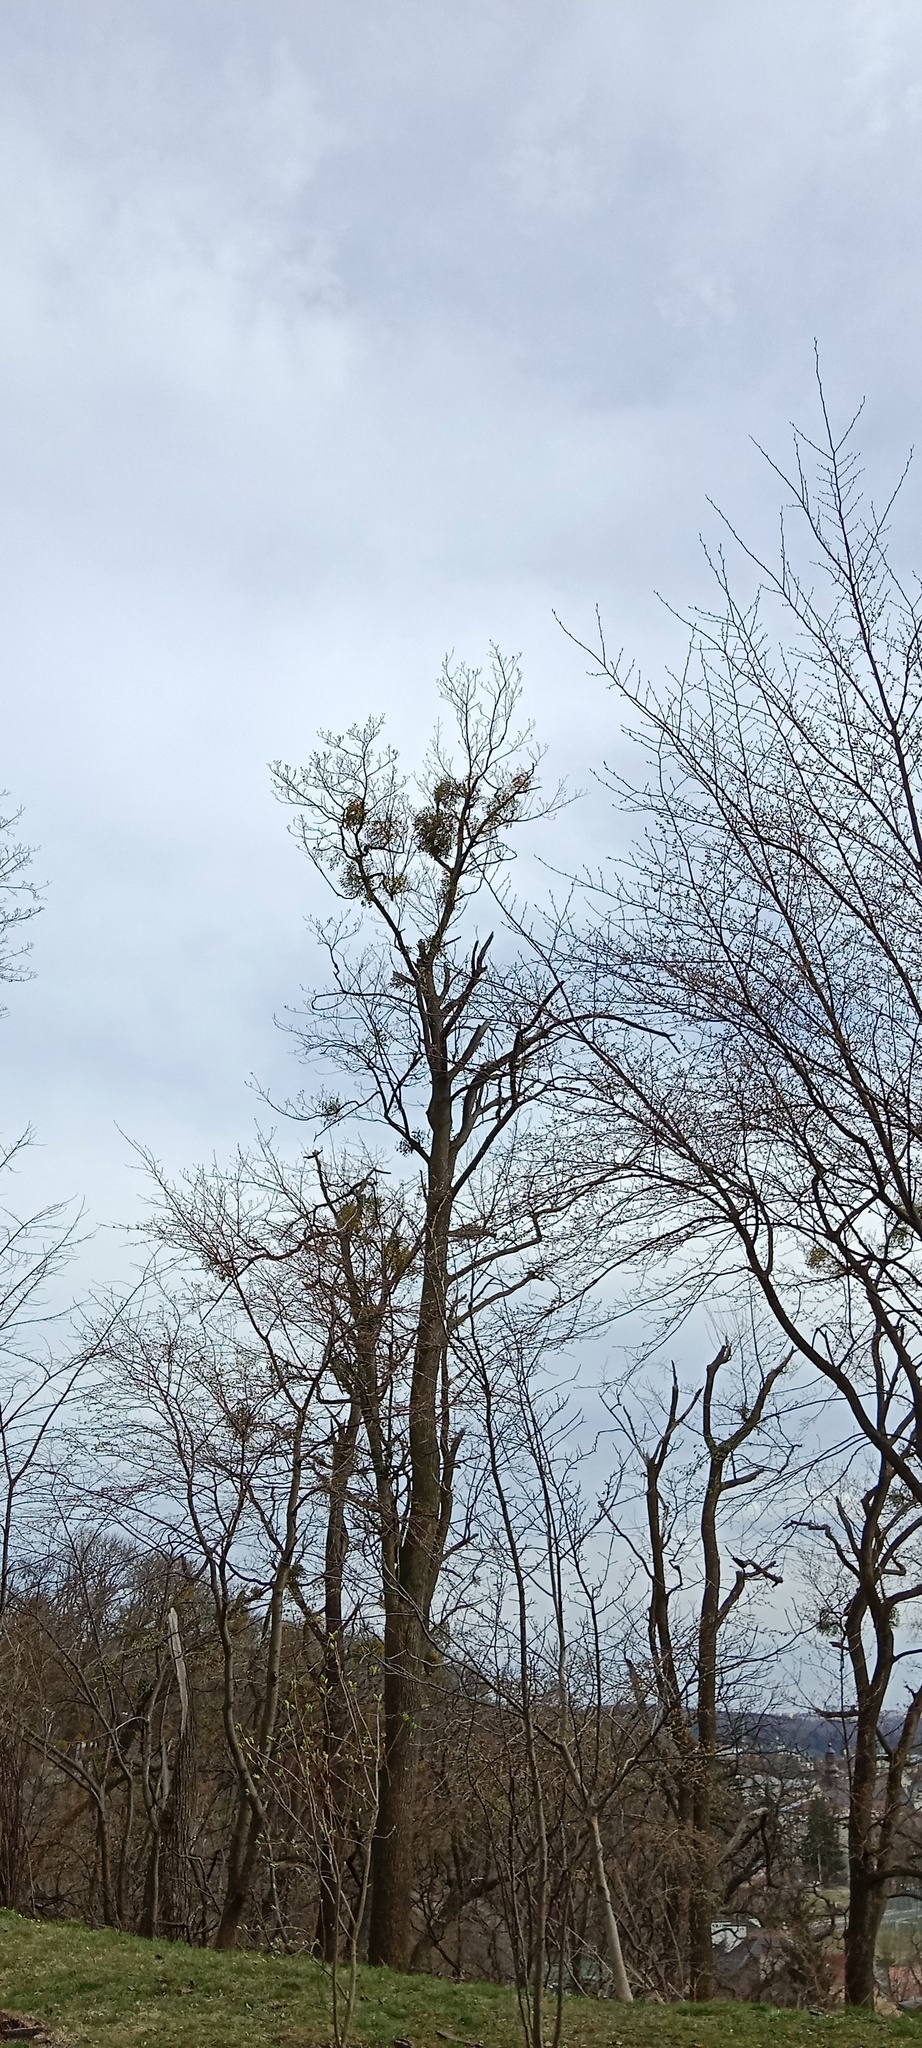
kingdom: Plantae
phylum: Tracheophyta
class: Magnoliopsida
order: Santalales
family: Viscaceae
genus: Viscum
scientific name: Viscum album
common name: Mistletoe
